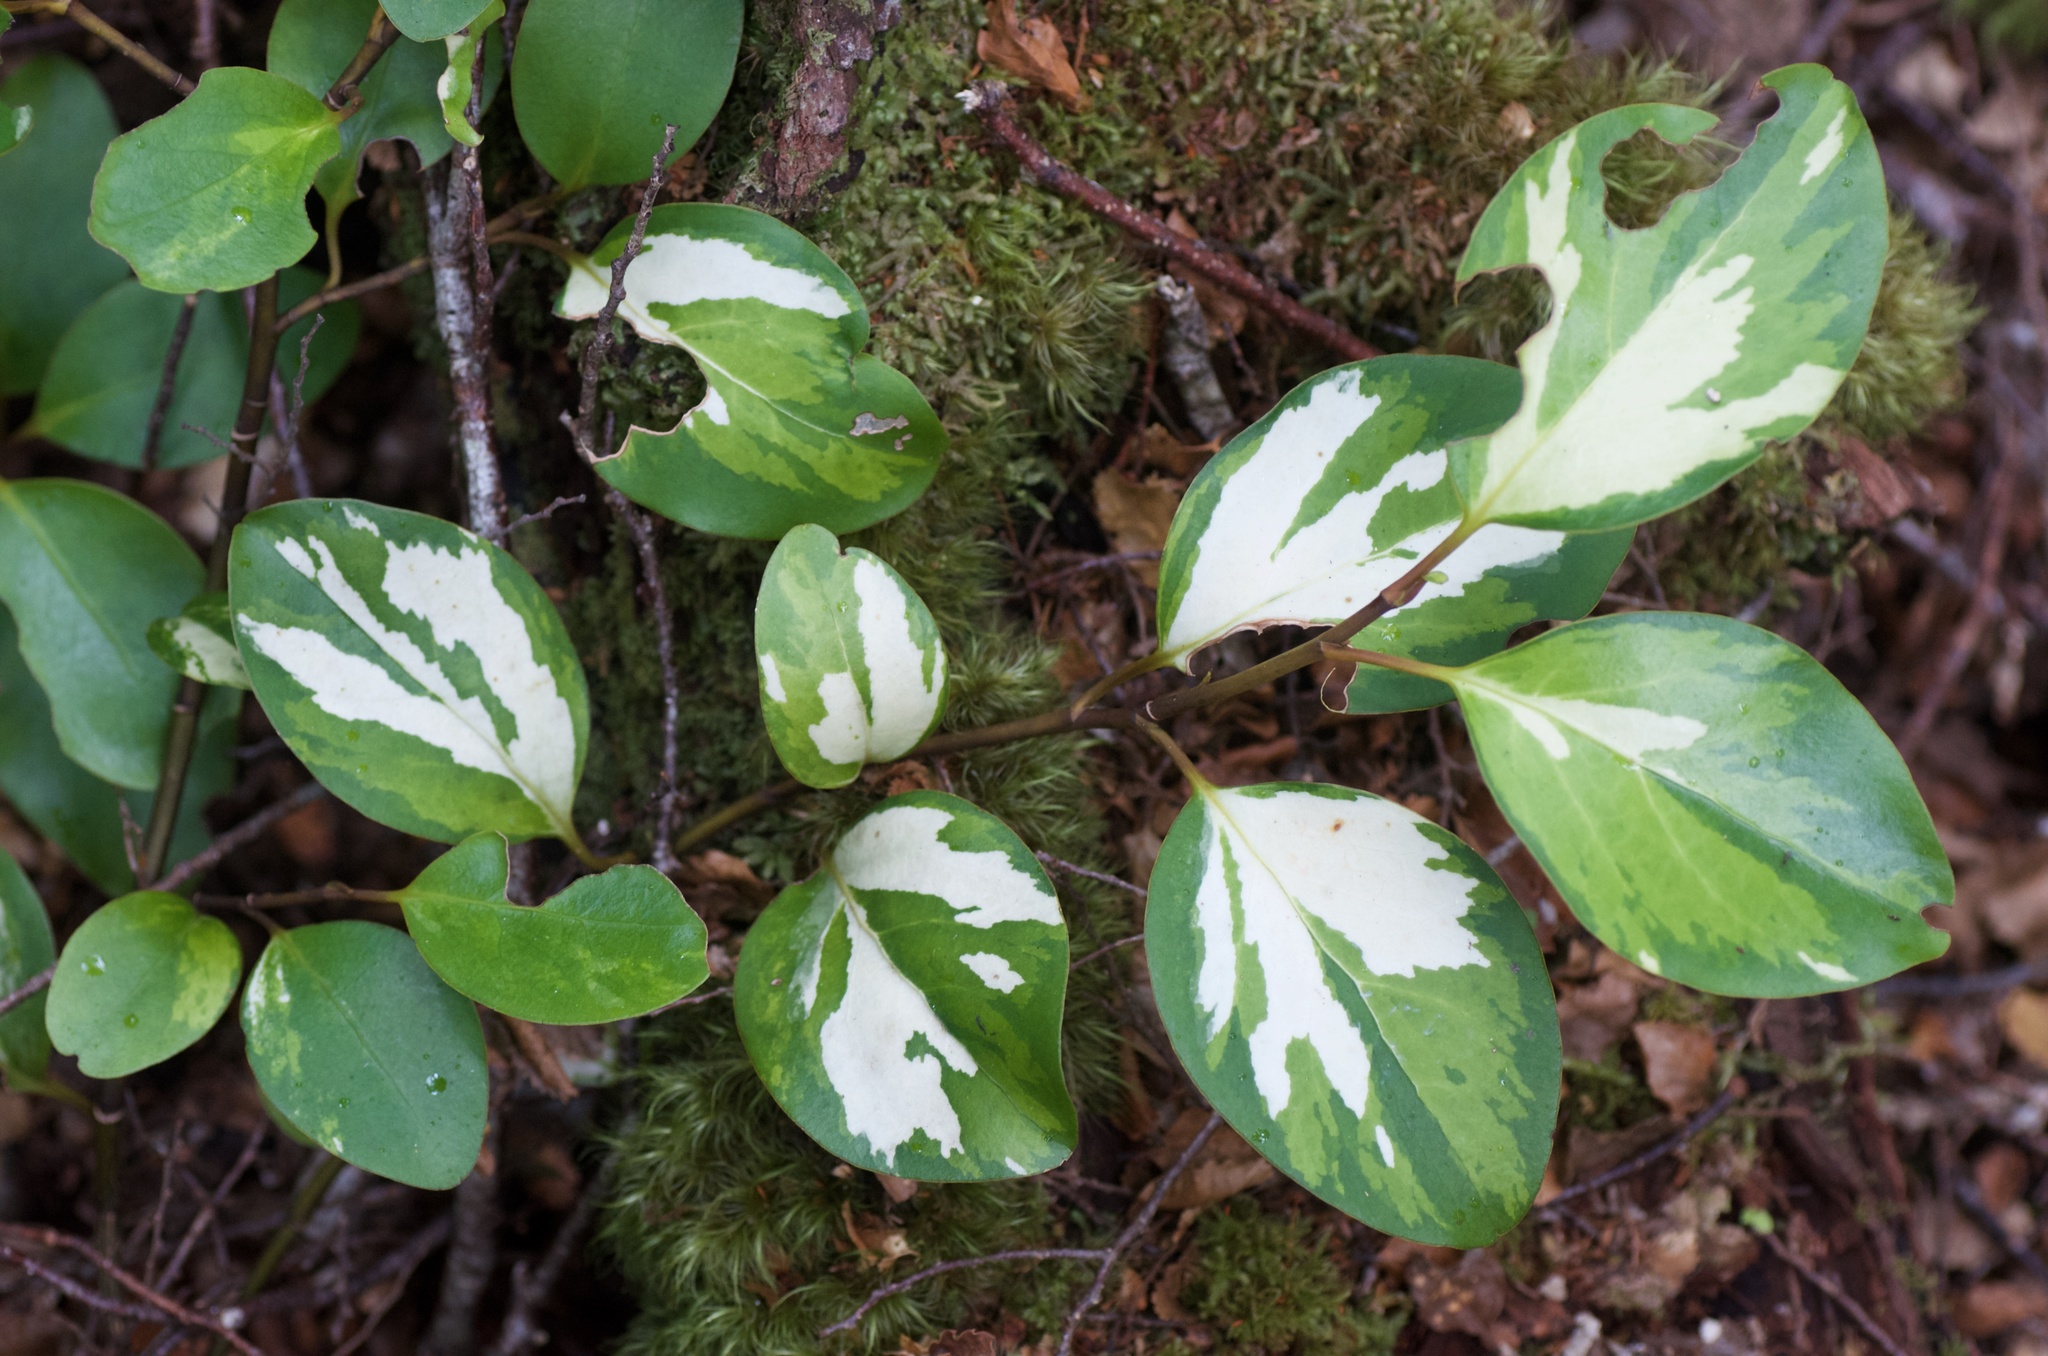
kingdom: Plantae
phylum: Tracheophyta
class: Magnoliopsida
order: Apiales
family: Griseliniaceae
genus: Griselinia
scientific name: Griselinia littoralis
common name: New zealand broadleaf
